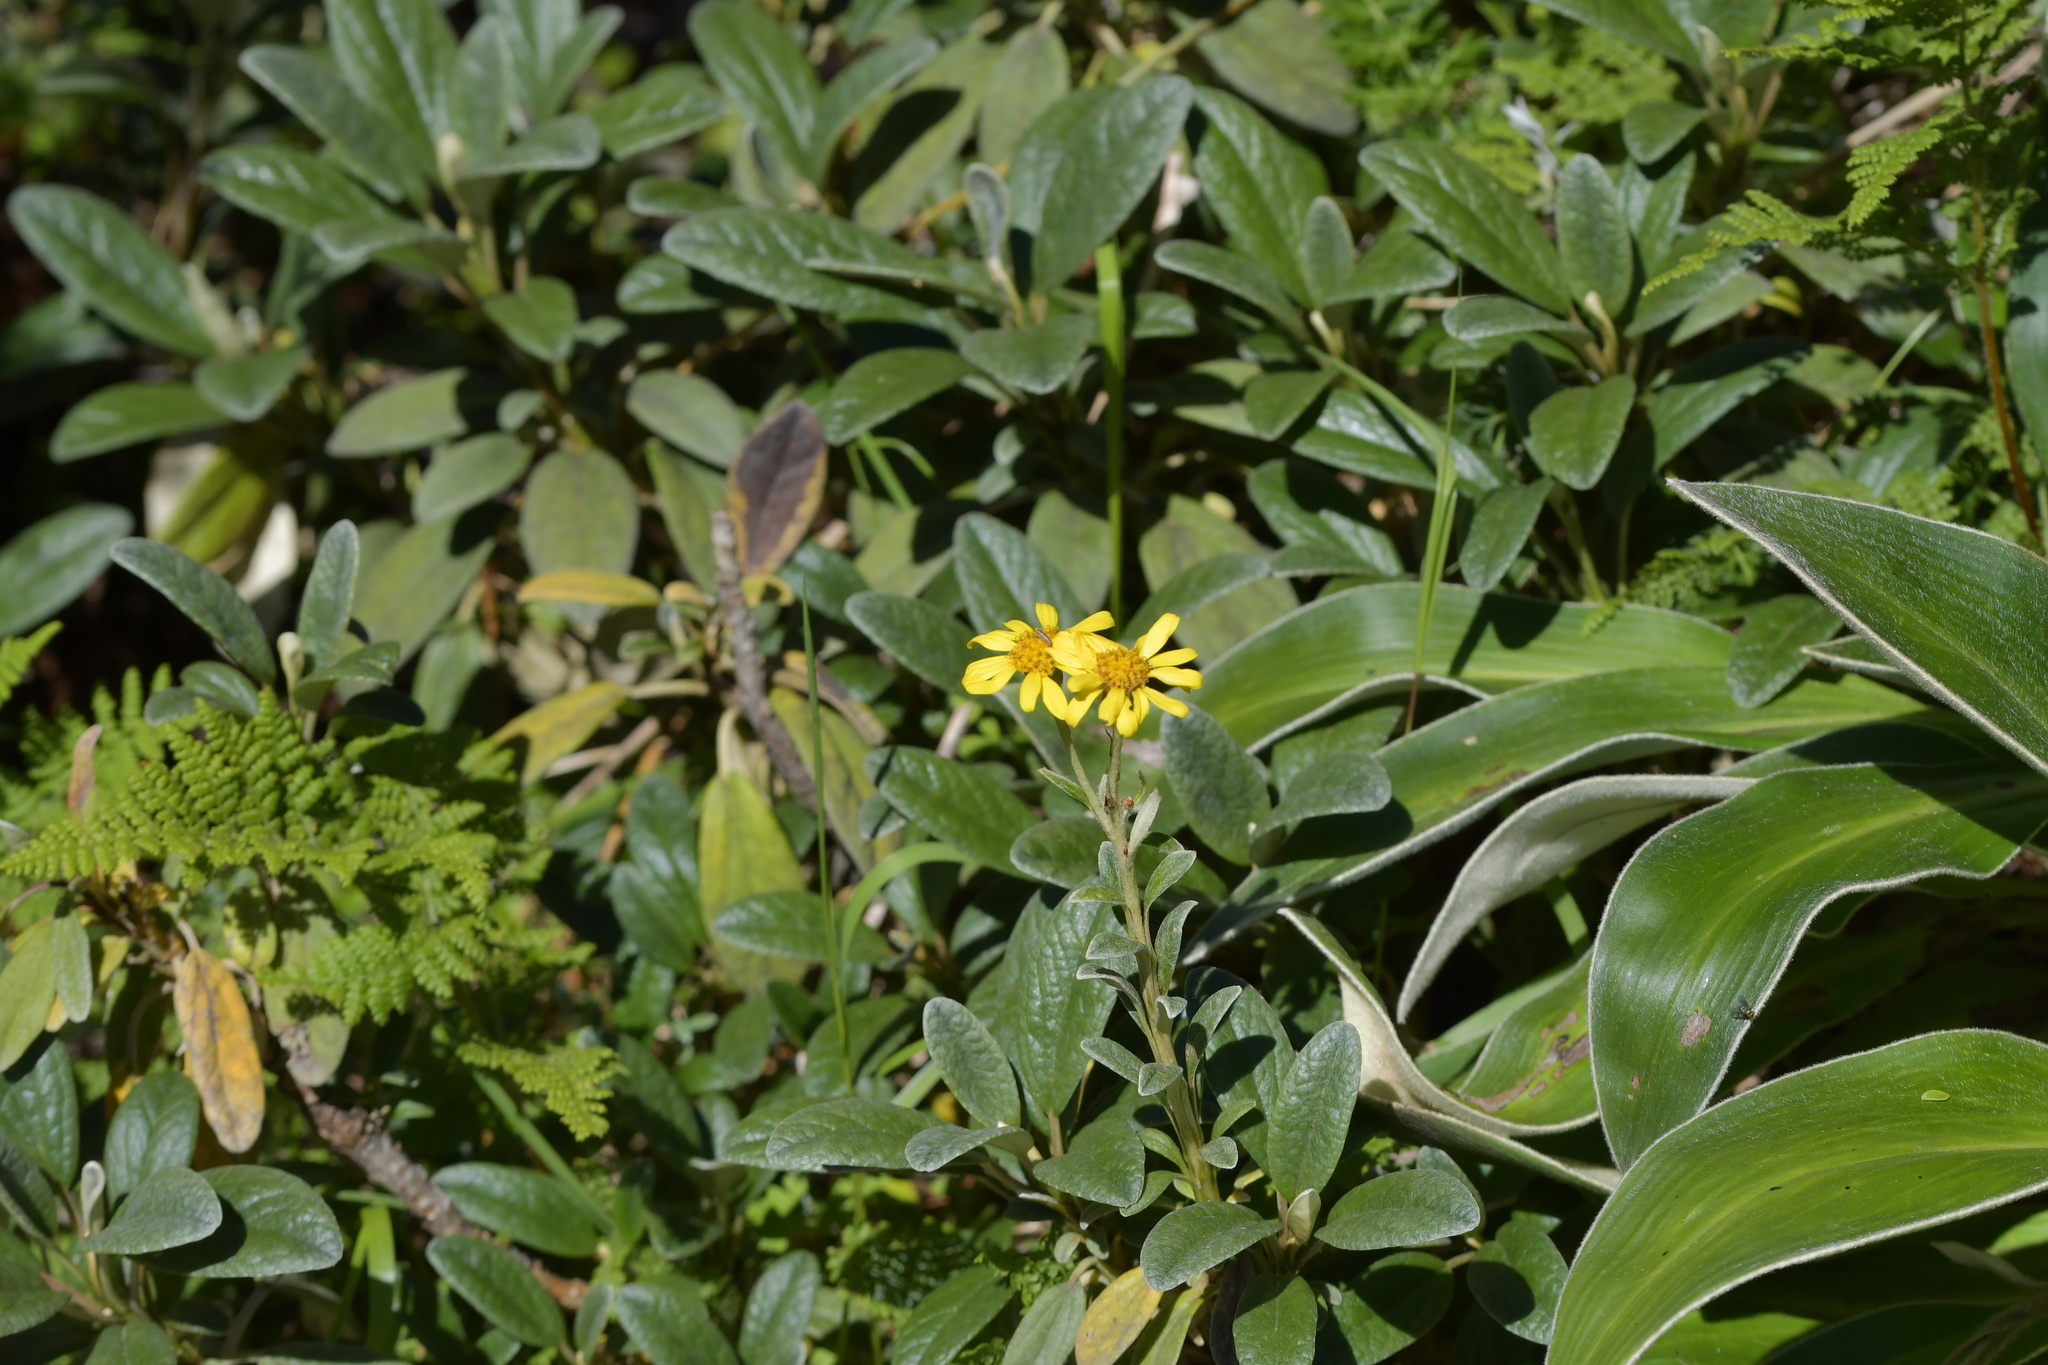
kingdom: Plantae
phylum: Tracheophyta
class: Magnoliopsida
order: Asterales
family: Asteraceae
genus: Brachyglottis
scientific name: Brachyglottis revoluta
